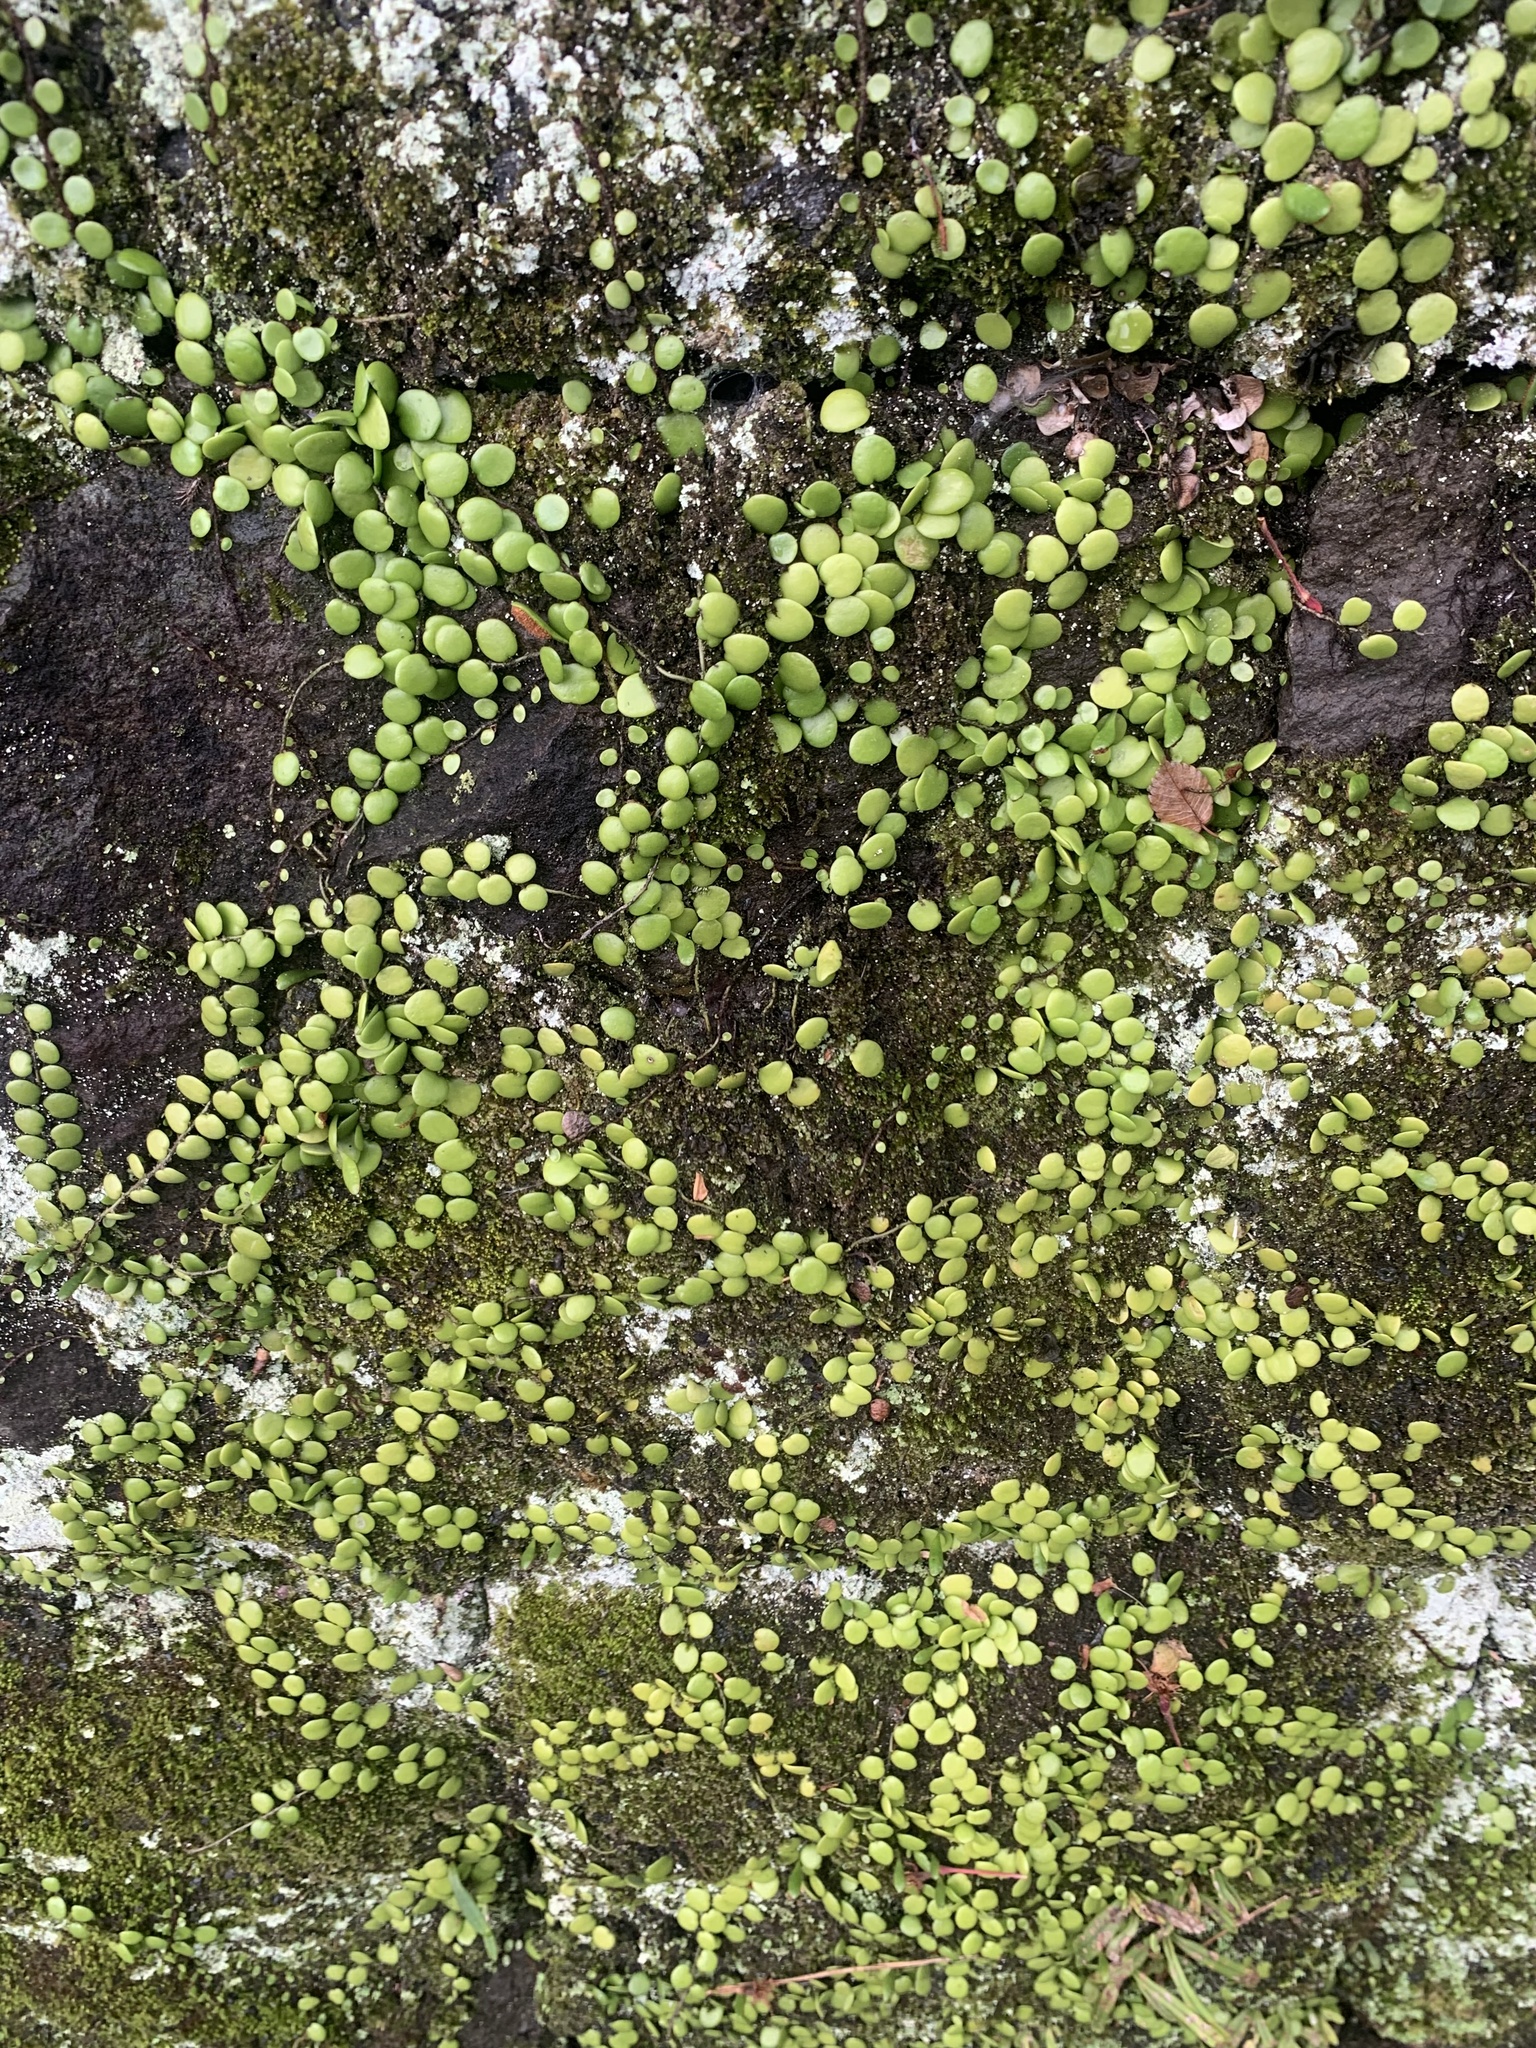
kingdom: Plantae
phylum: Tracheophyta
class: Polypodiopsida
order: Polypodiales
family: Polypodiaceae
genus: Lepisorus
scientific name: Lepisorus microphyllus
